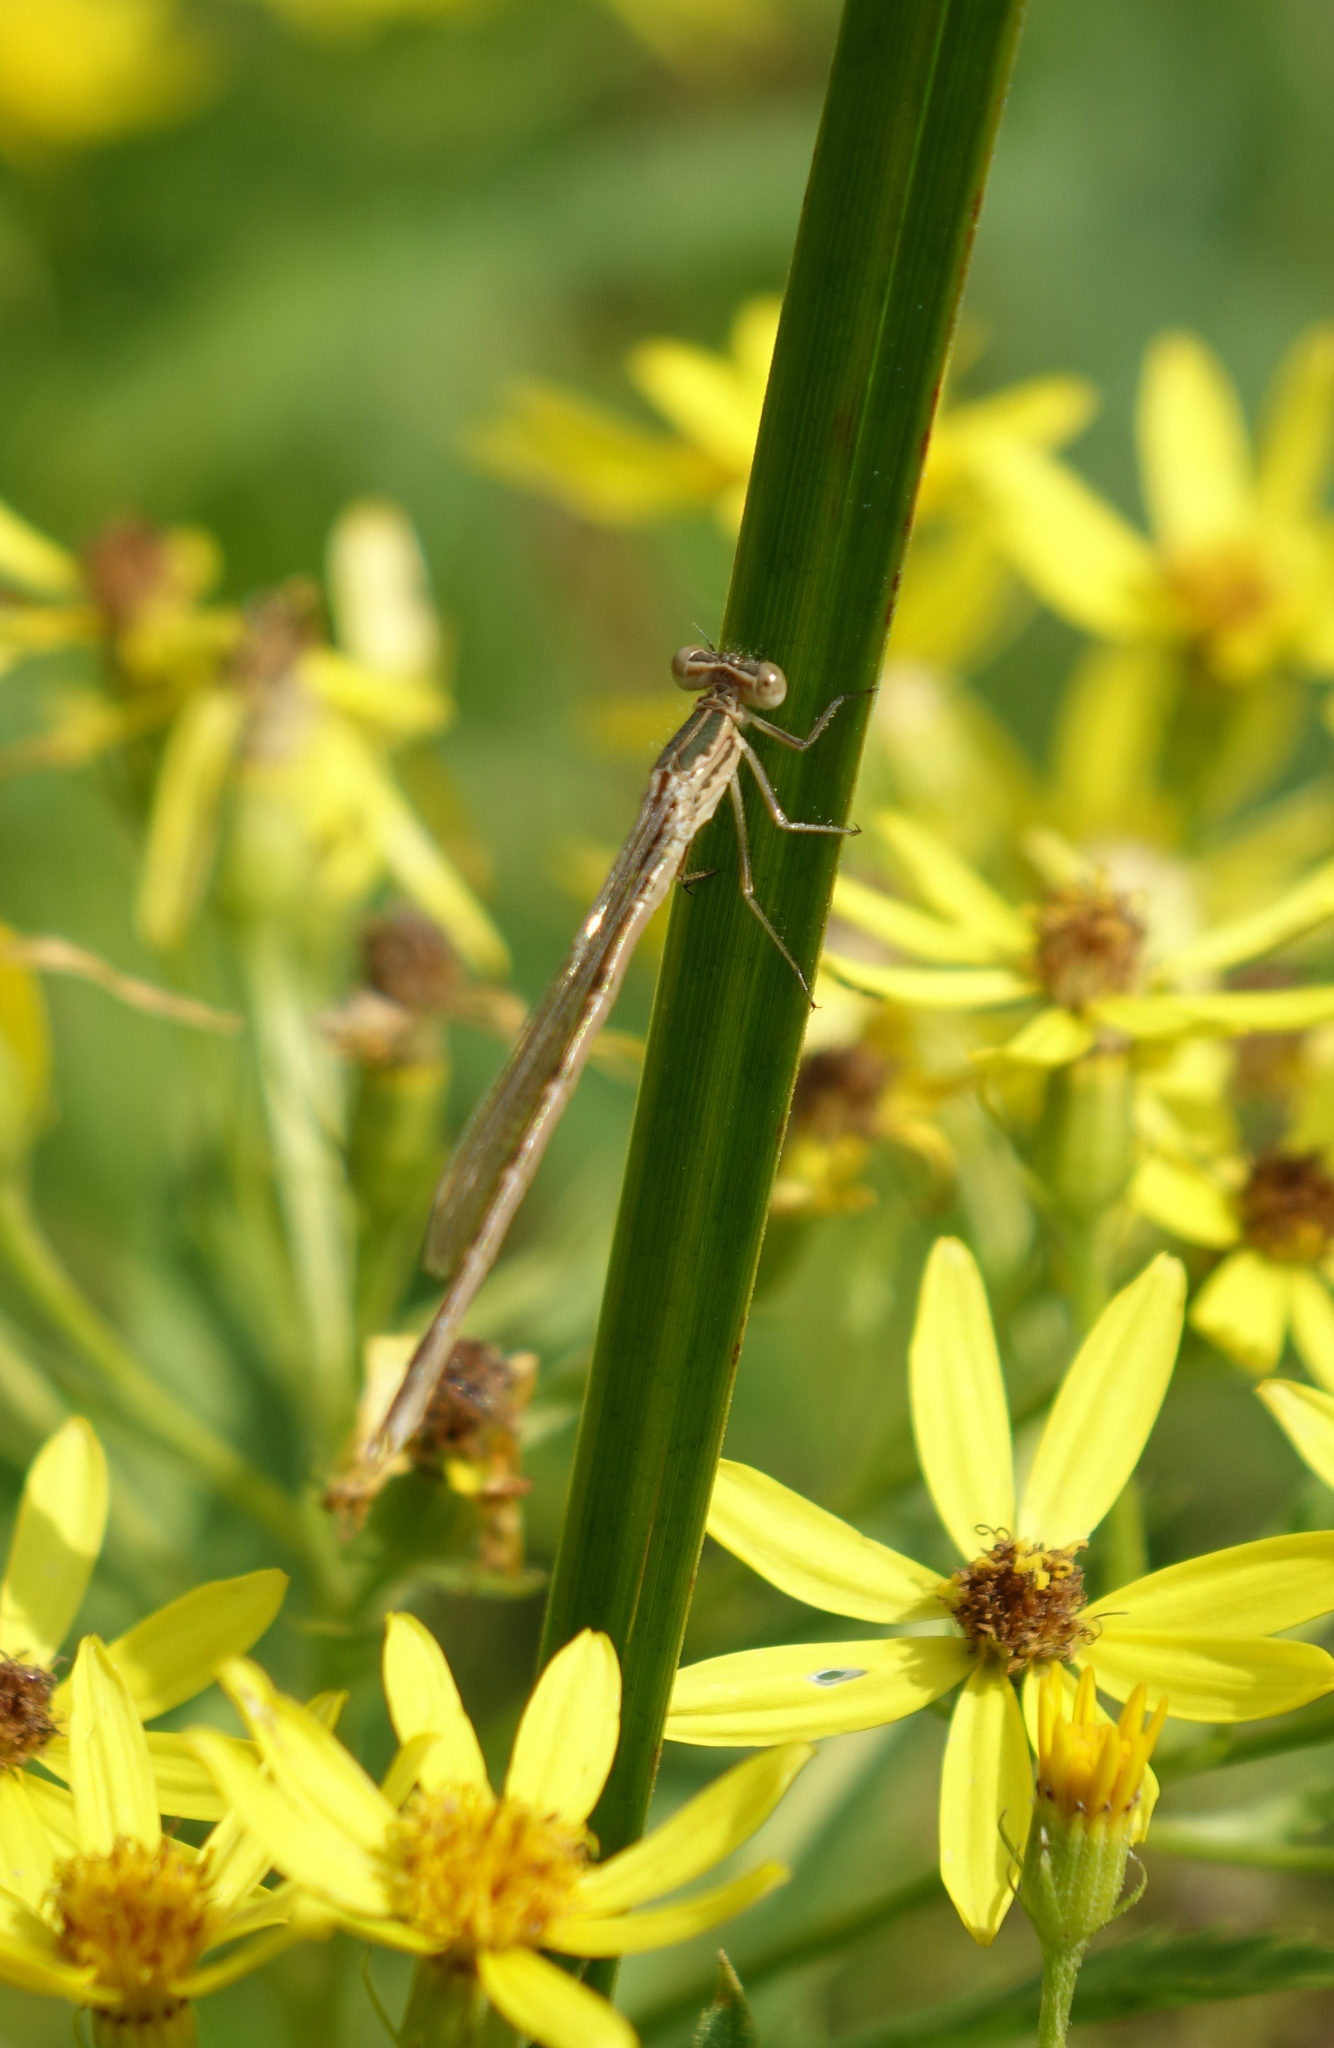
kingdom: Animalia
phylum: Arthropoda
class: Insecta
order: Odonata
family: Lestidae
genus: Sympecma
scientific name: Sympecma paedisca
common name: Siberian winter damsel
